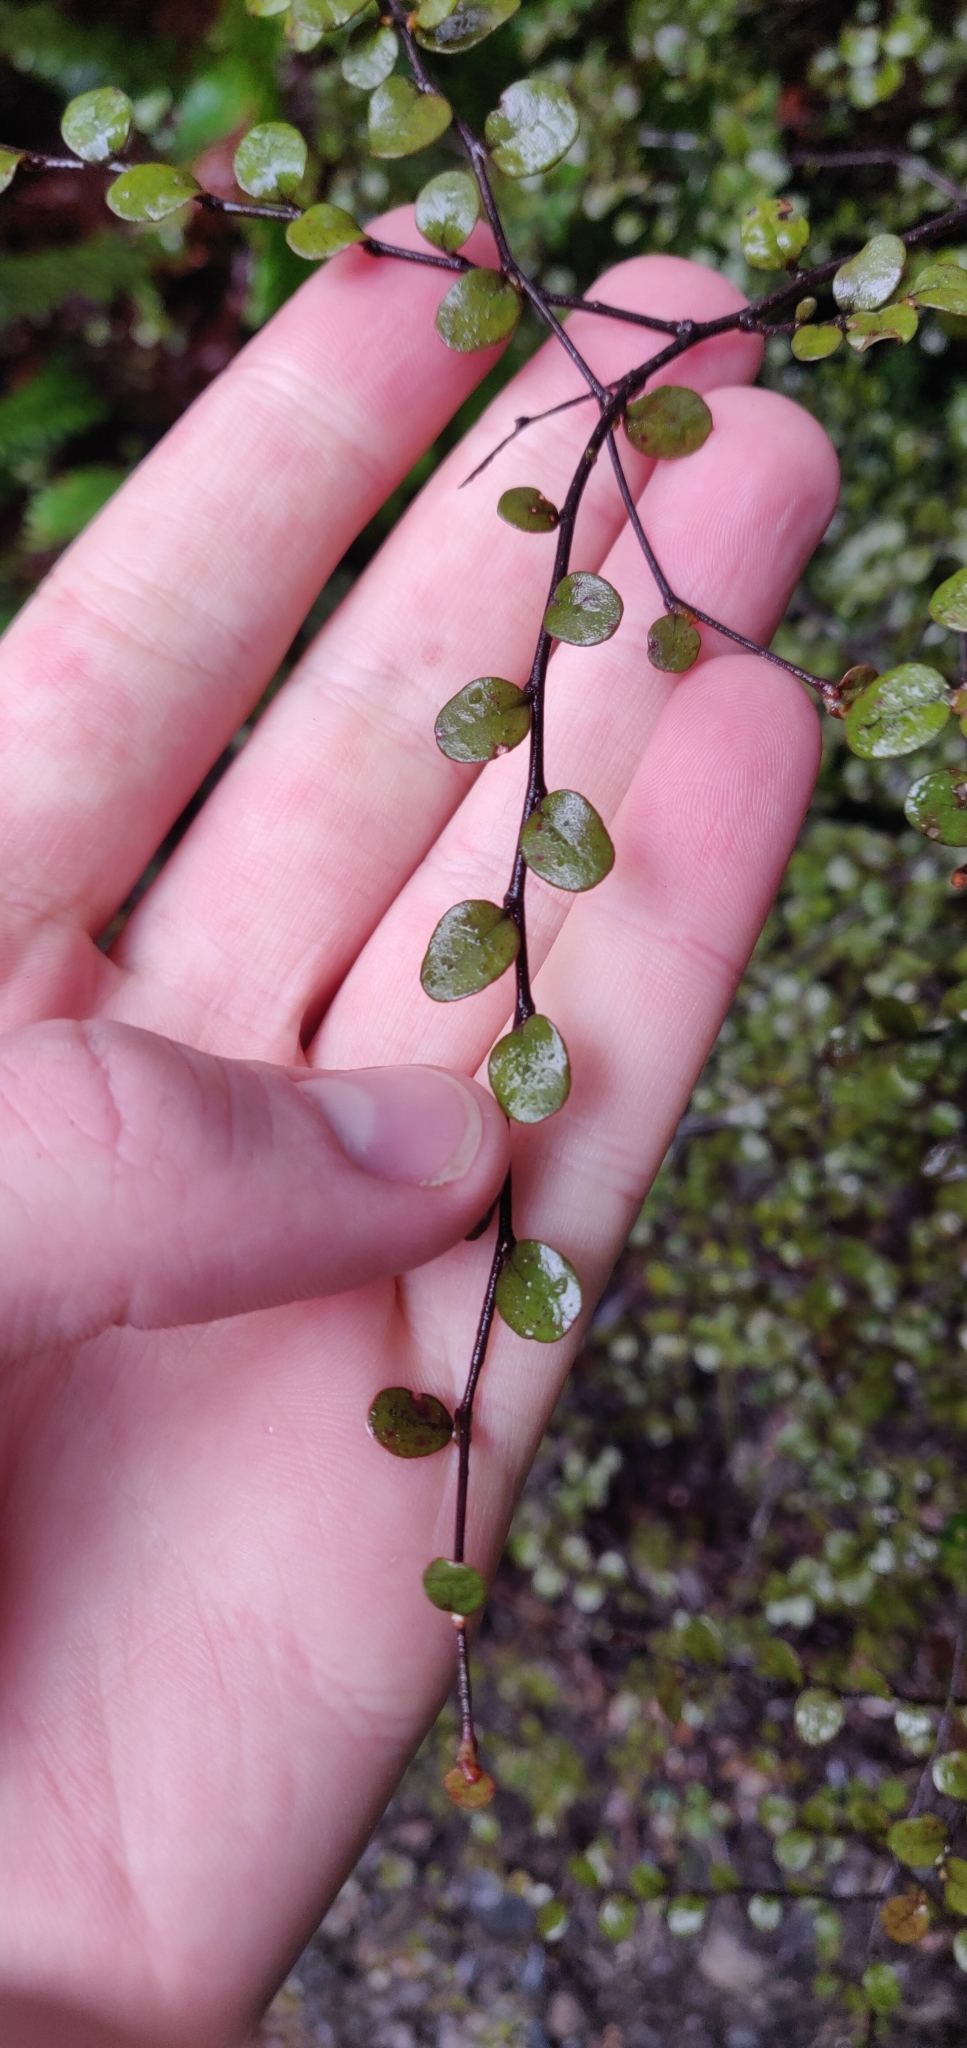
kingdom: Plantae
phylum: Tracheophyta
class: Magnoliopsida
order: Fagales
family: Nothofagaceae
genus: Nothofagus
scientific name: Nothofagus solandri
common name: Black beech
